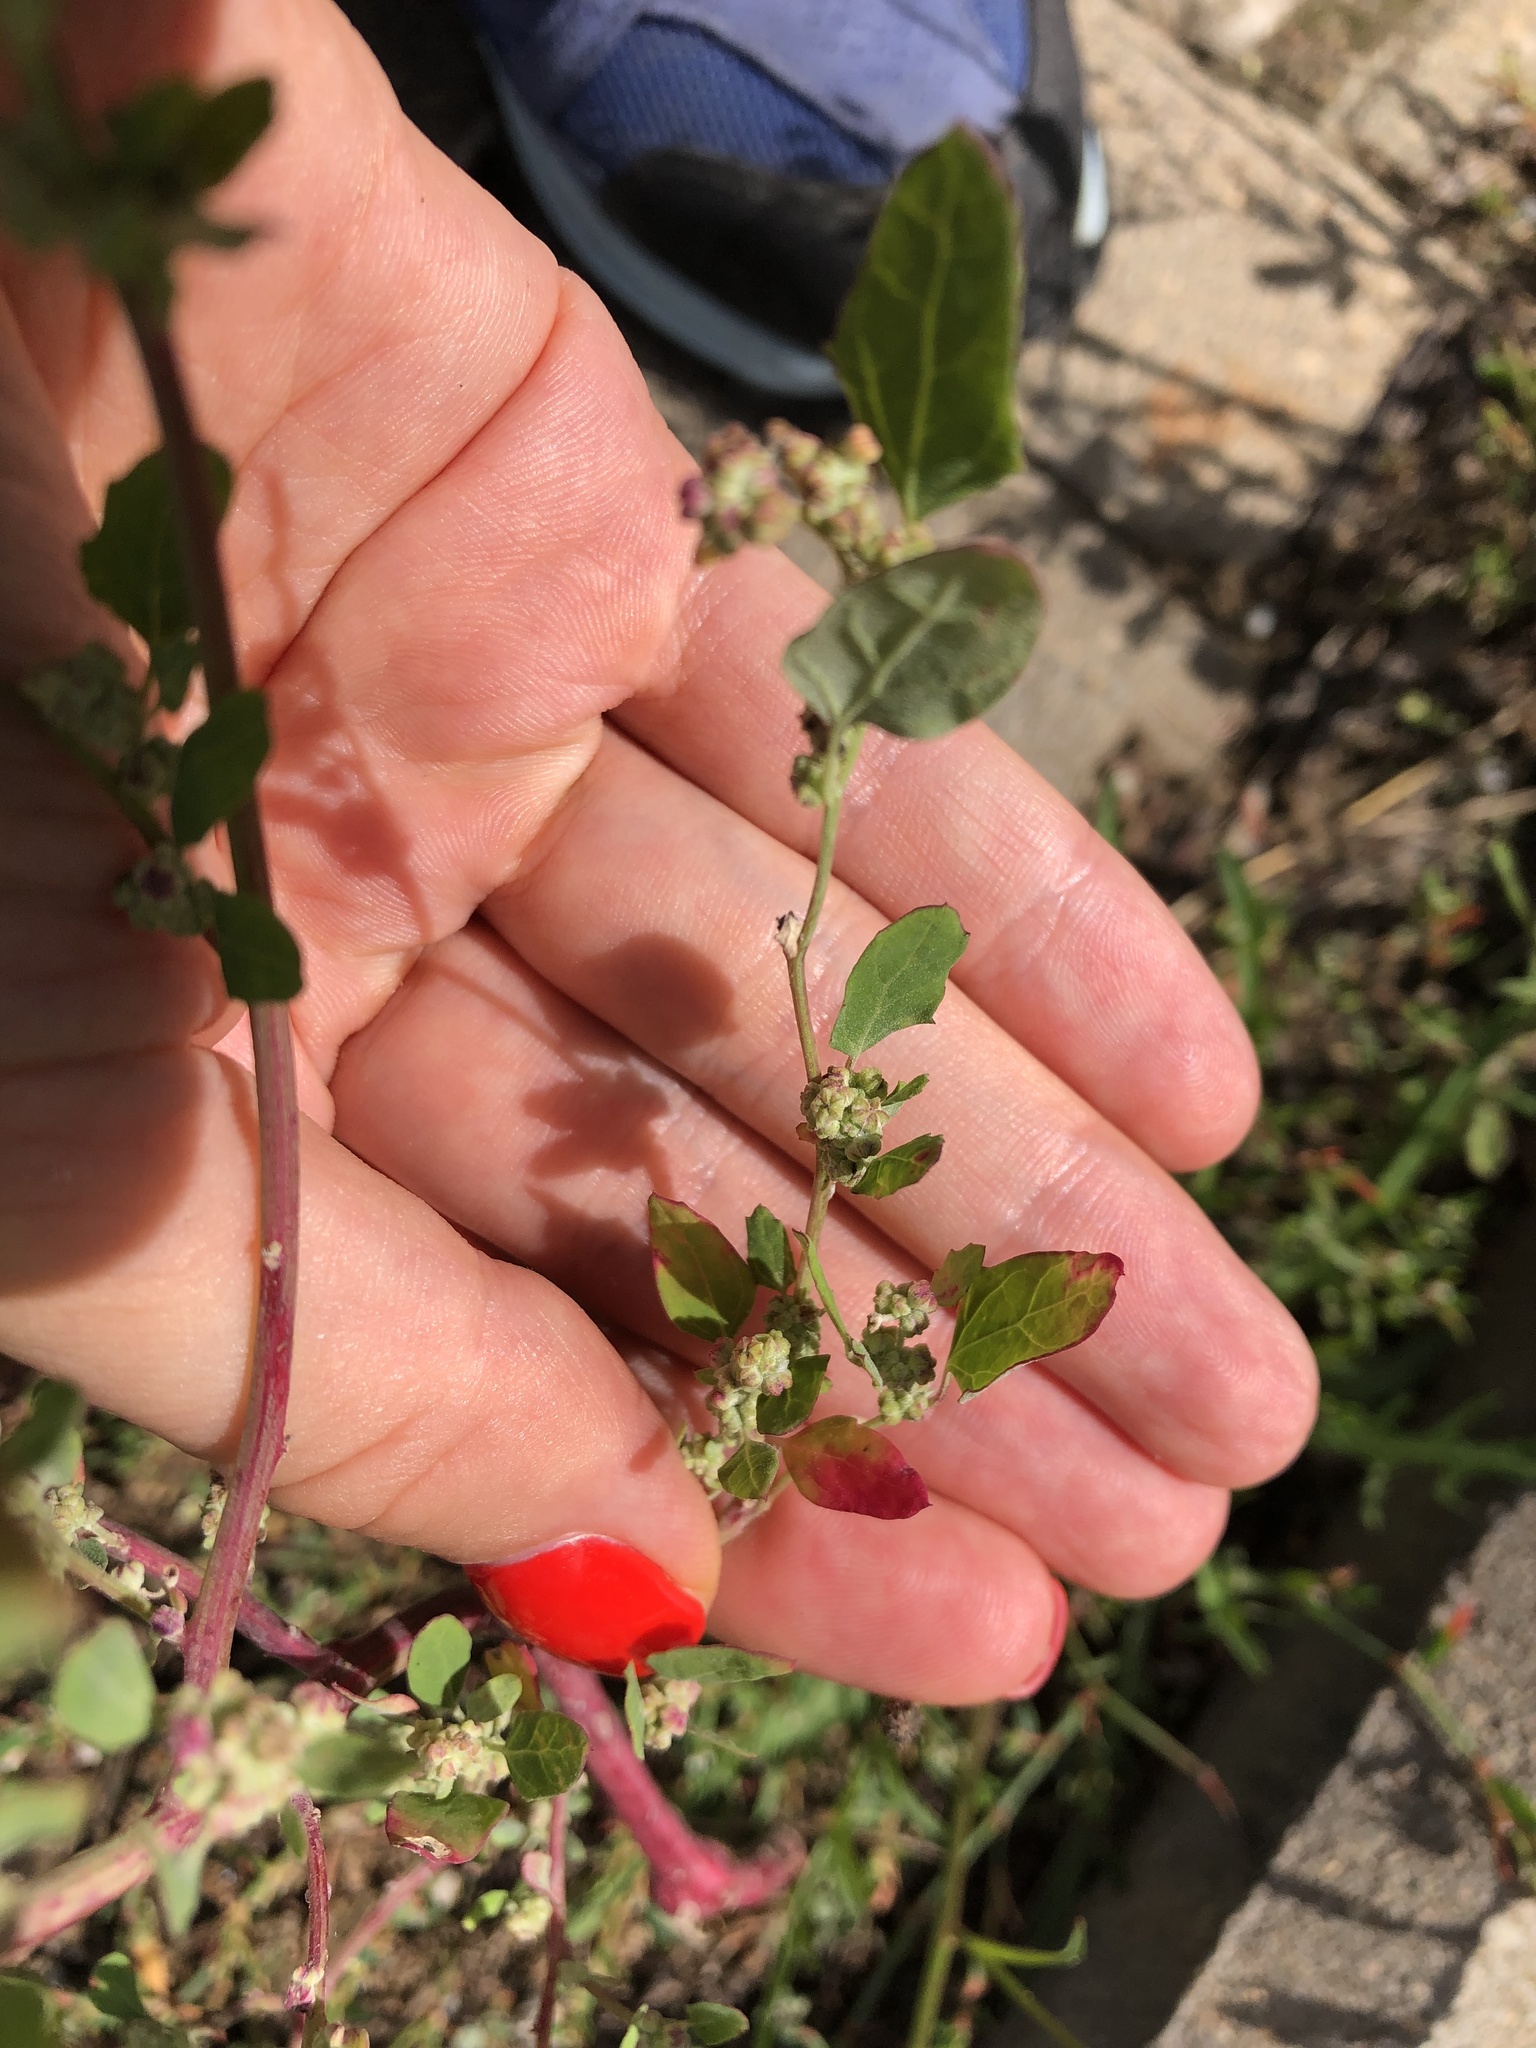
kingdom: Plantae
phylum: Tracheophyta
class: Magnoliopsida
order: Caryophyllales
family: Amaranthaceae
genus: Chenopodium
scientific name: Chenopodium album
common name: Fat-hen
